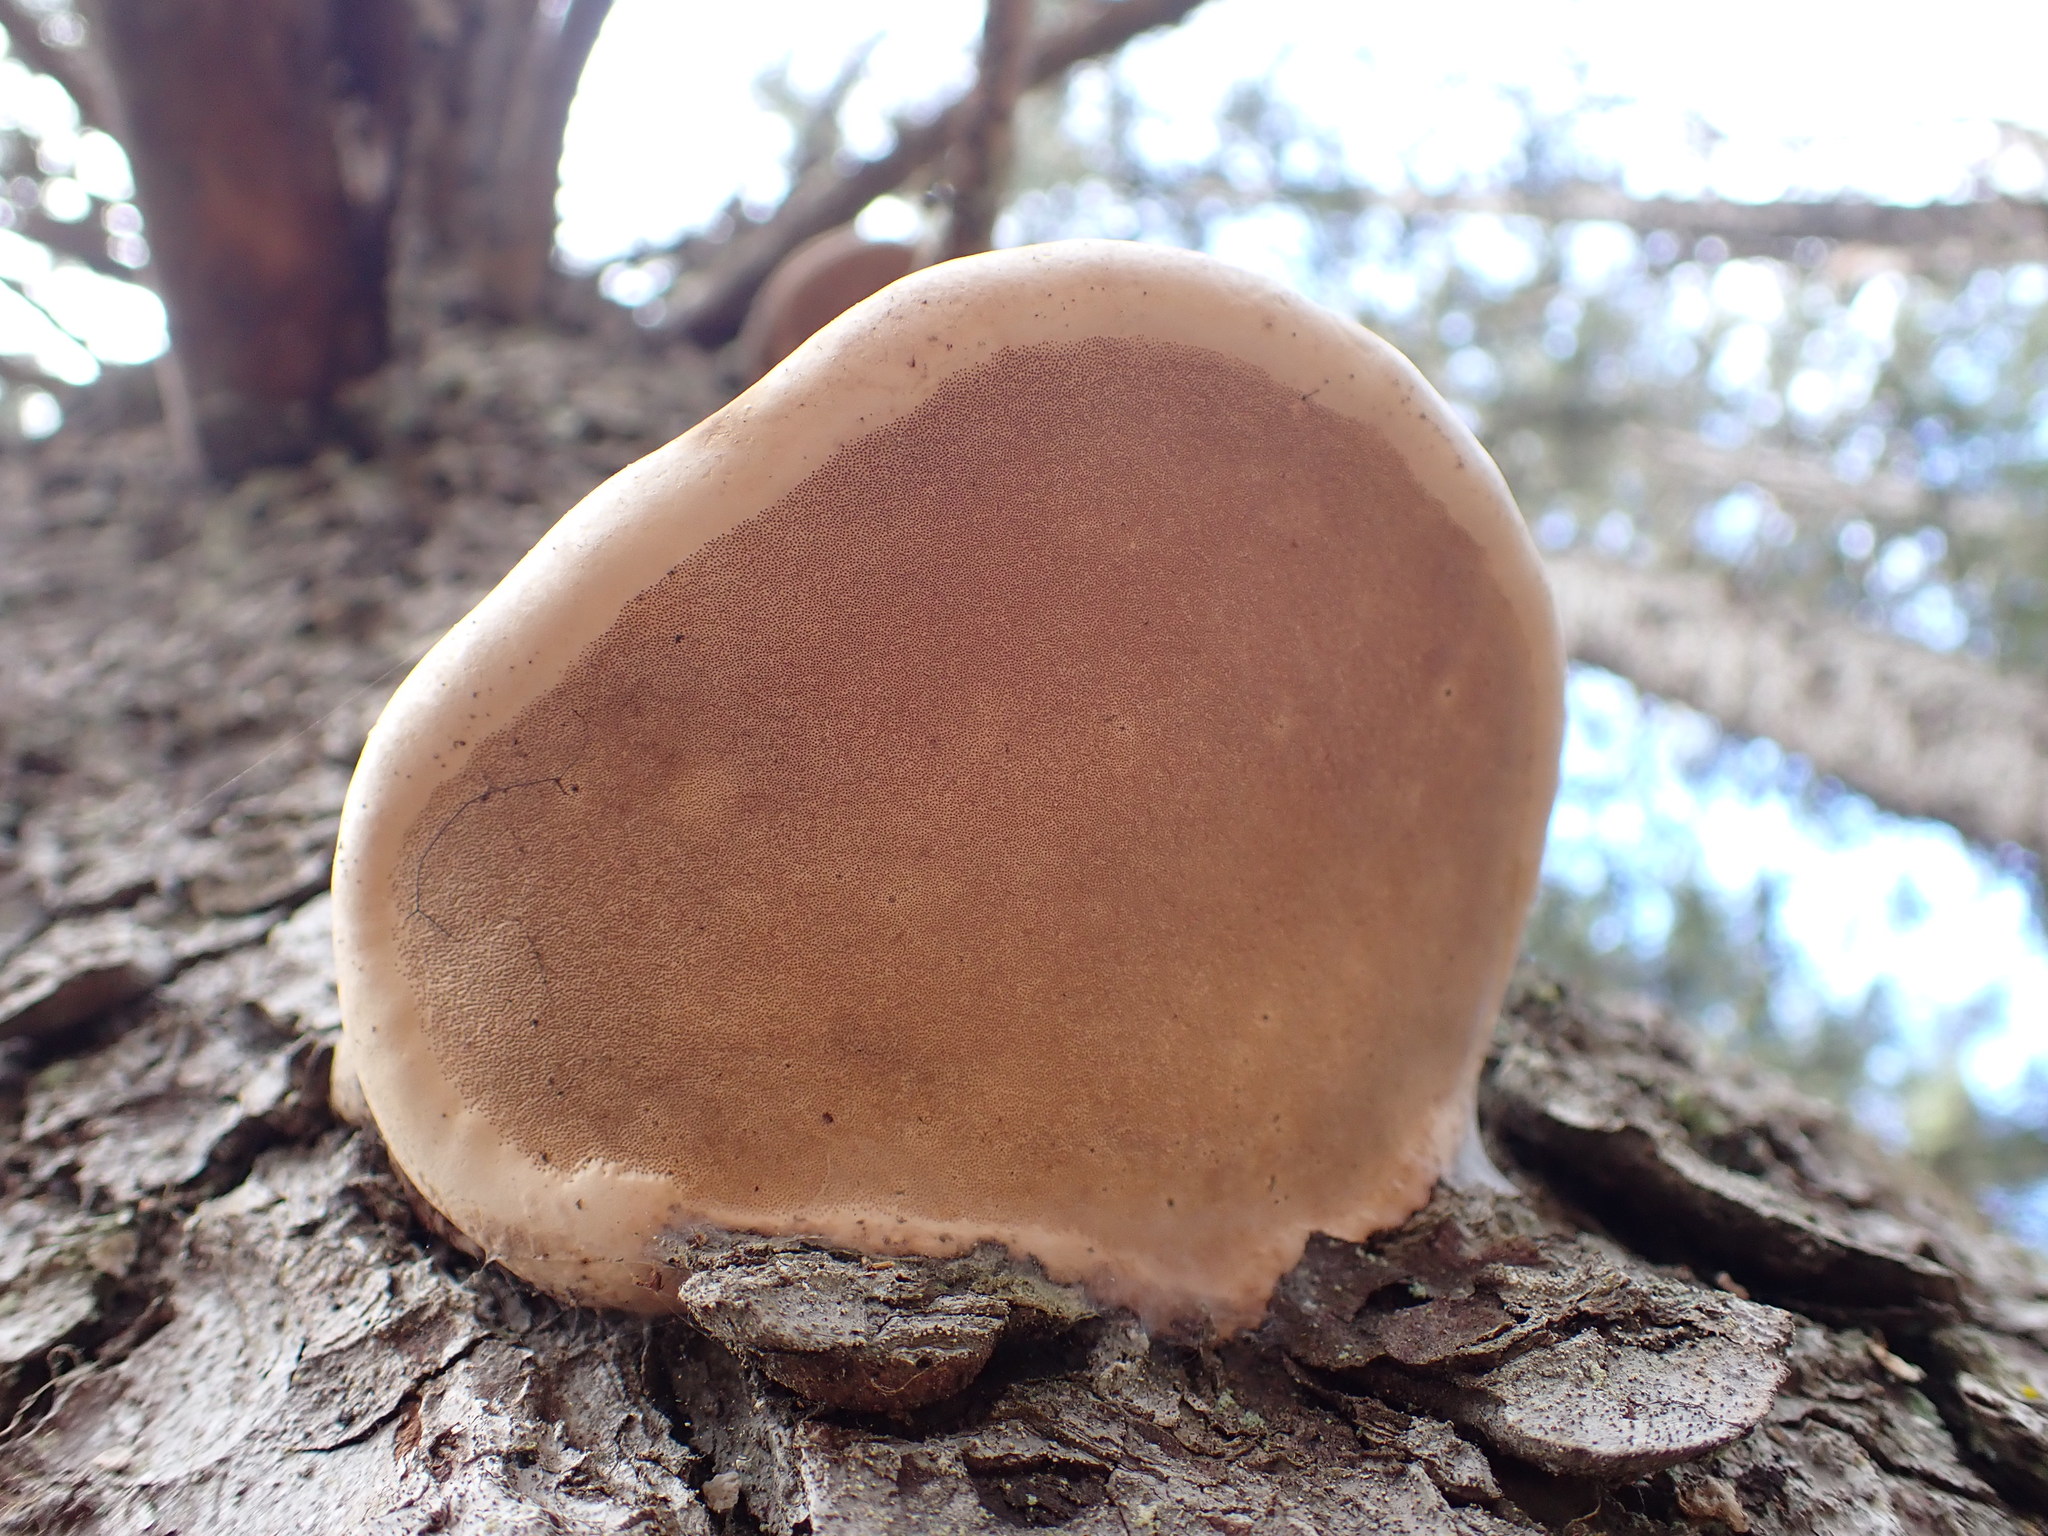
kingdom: Fungi
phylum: Basidiomycota
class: Agaricomycetes
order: Polyporales
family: Fomitopsidaceae
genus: Fomitopsis
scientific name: Fomitopsis ochracea
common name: American brown fomitopsis
